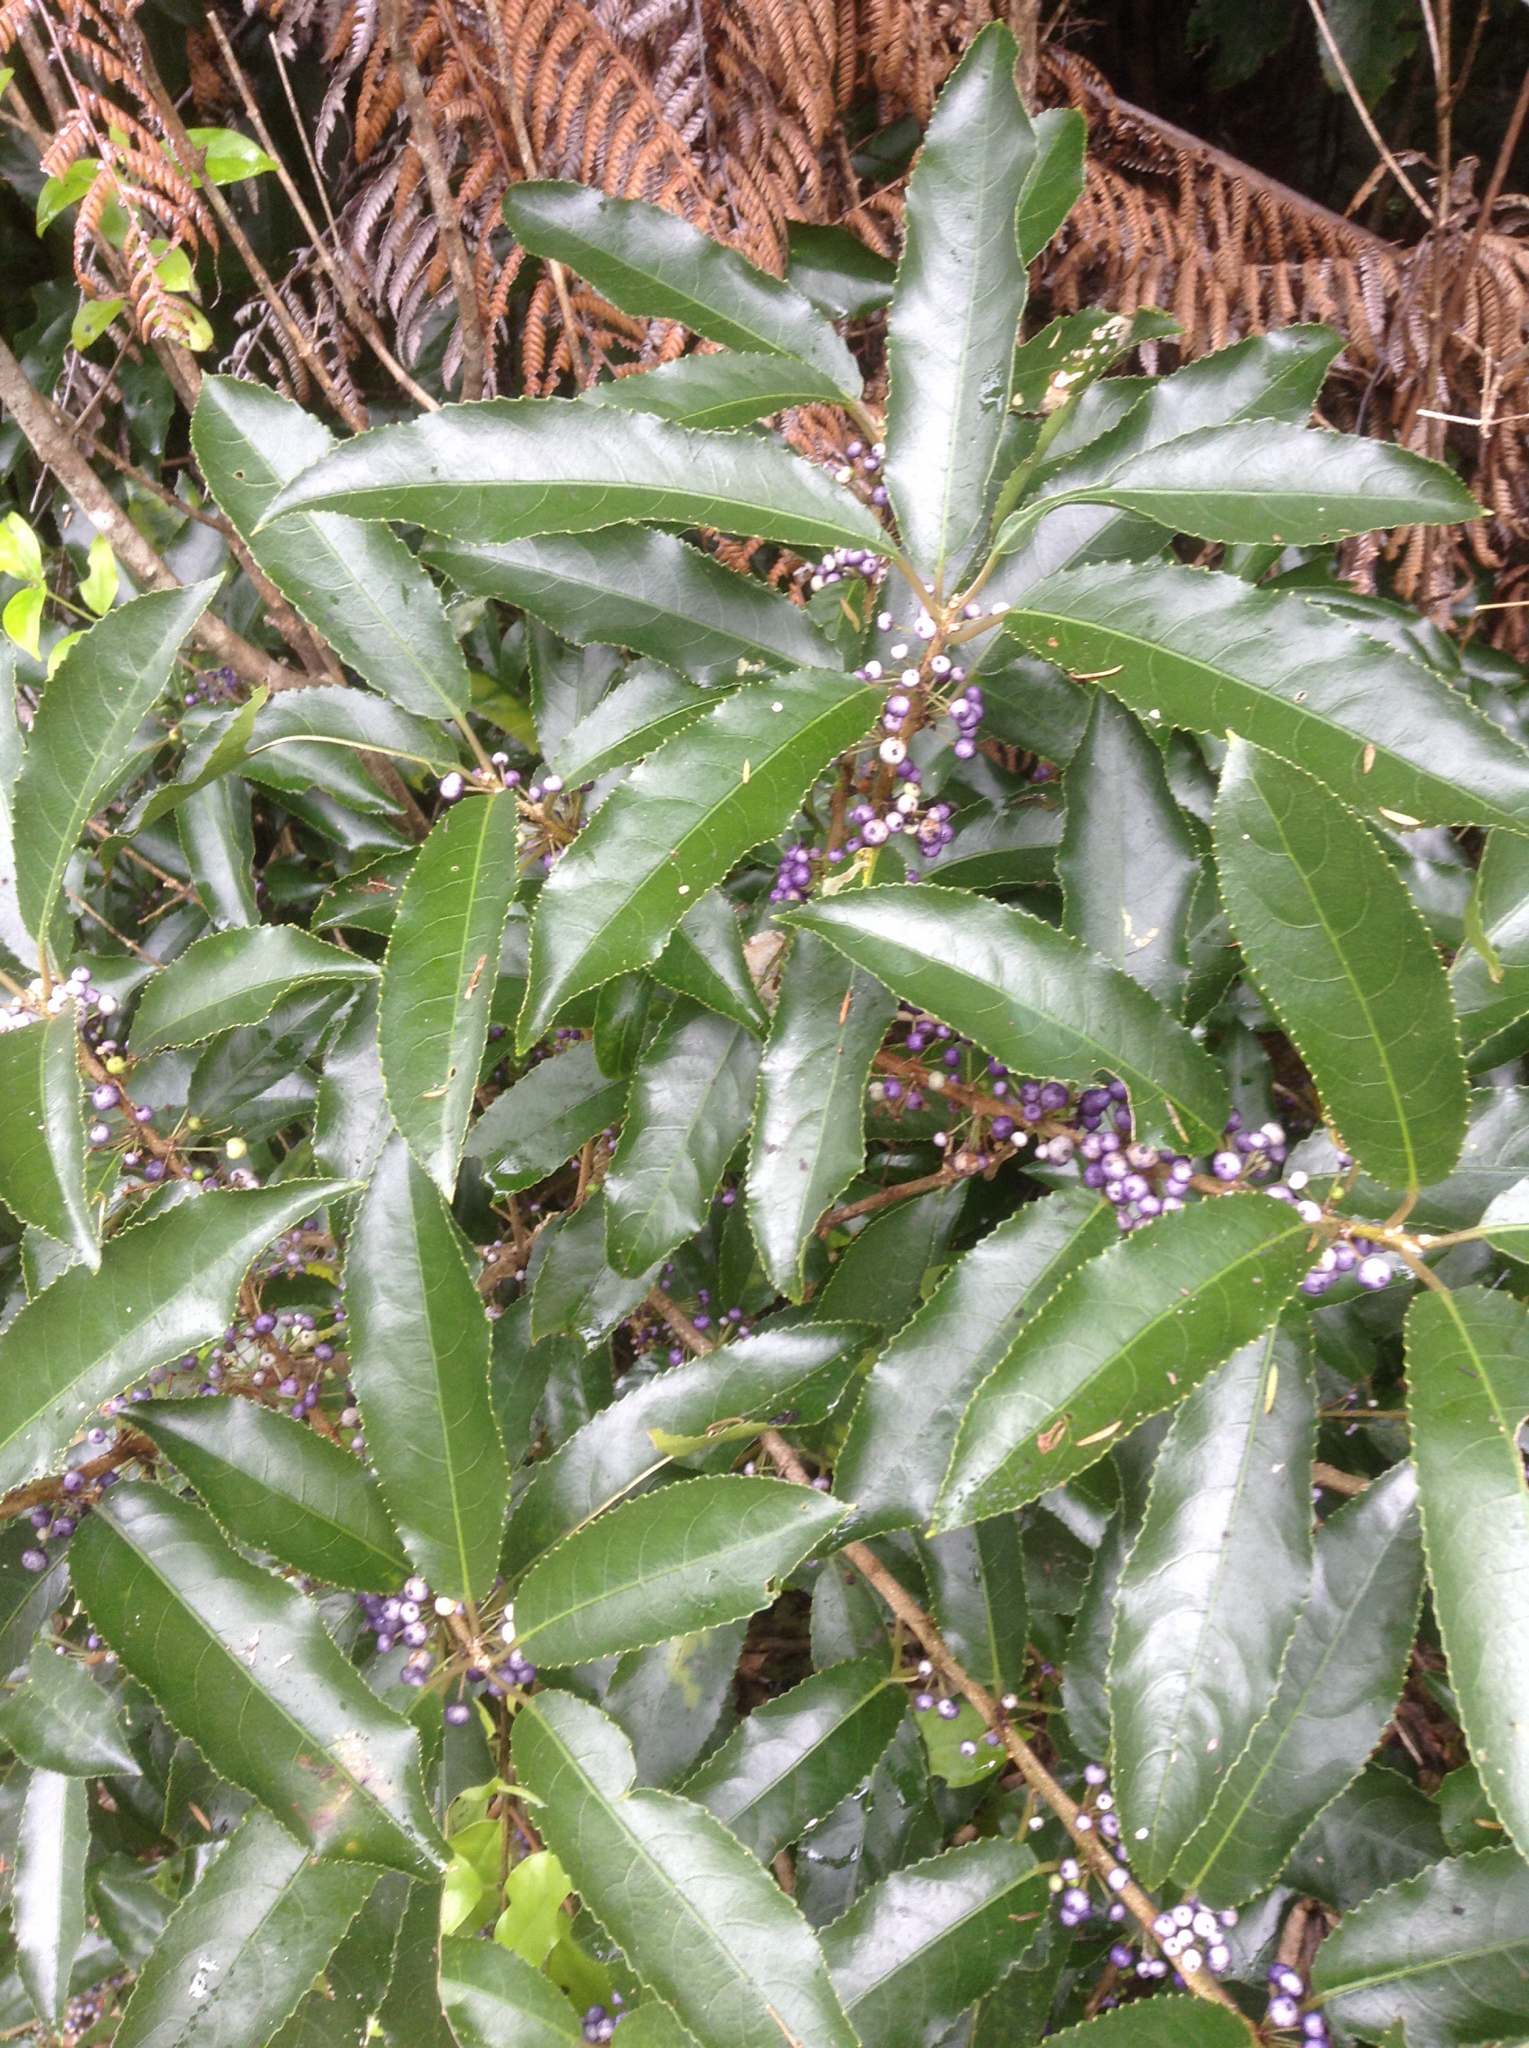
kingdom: Plantae
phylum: Tracheophyta
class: Magnoliopsida
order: Malpighiales
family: Violaceae
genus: Melicytus
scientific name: Melicytus ramiflorus
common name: Mahoe
